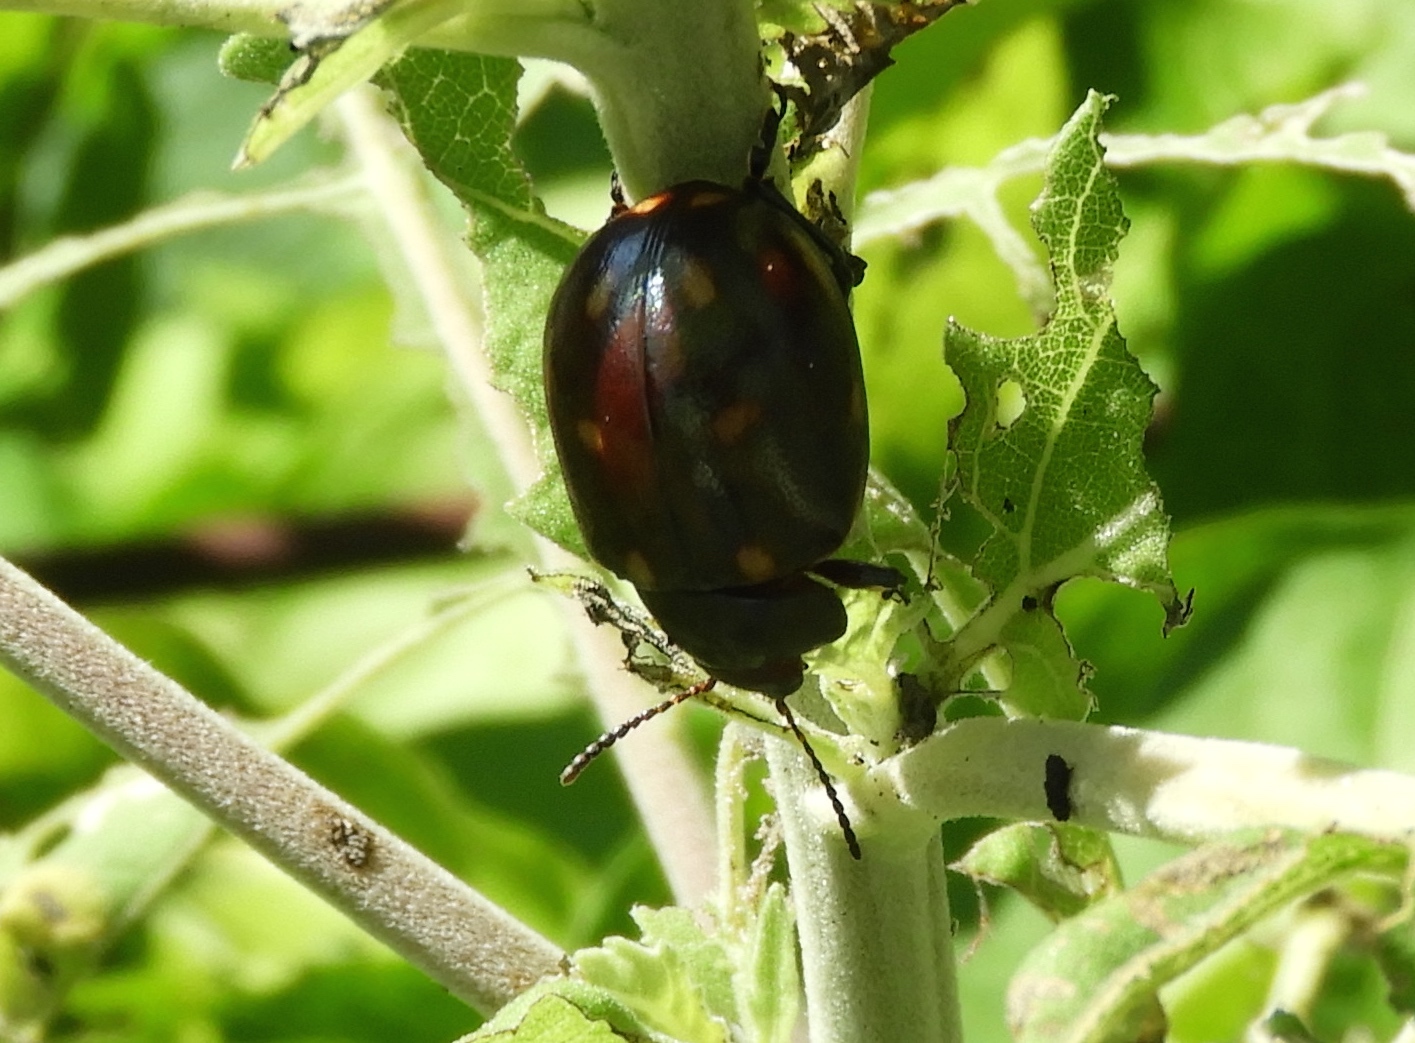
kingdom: Animalia
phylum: Arthropoda
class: Insecta
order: Coleoptera
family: Chrysomelidae
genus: Leptinotarsa
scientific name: Leptinotarsa behrensi
